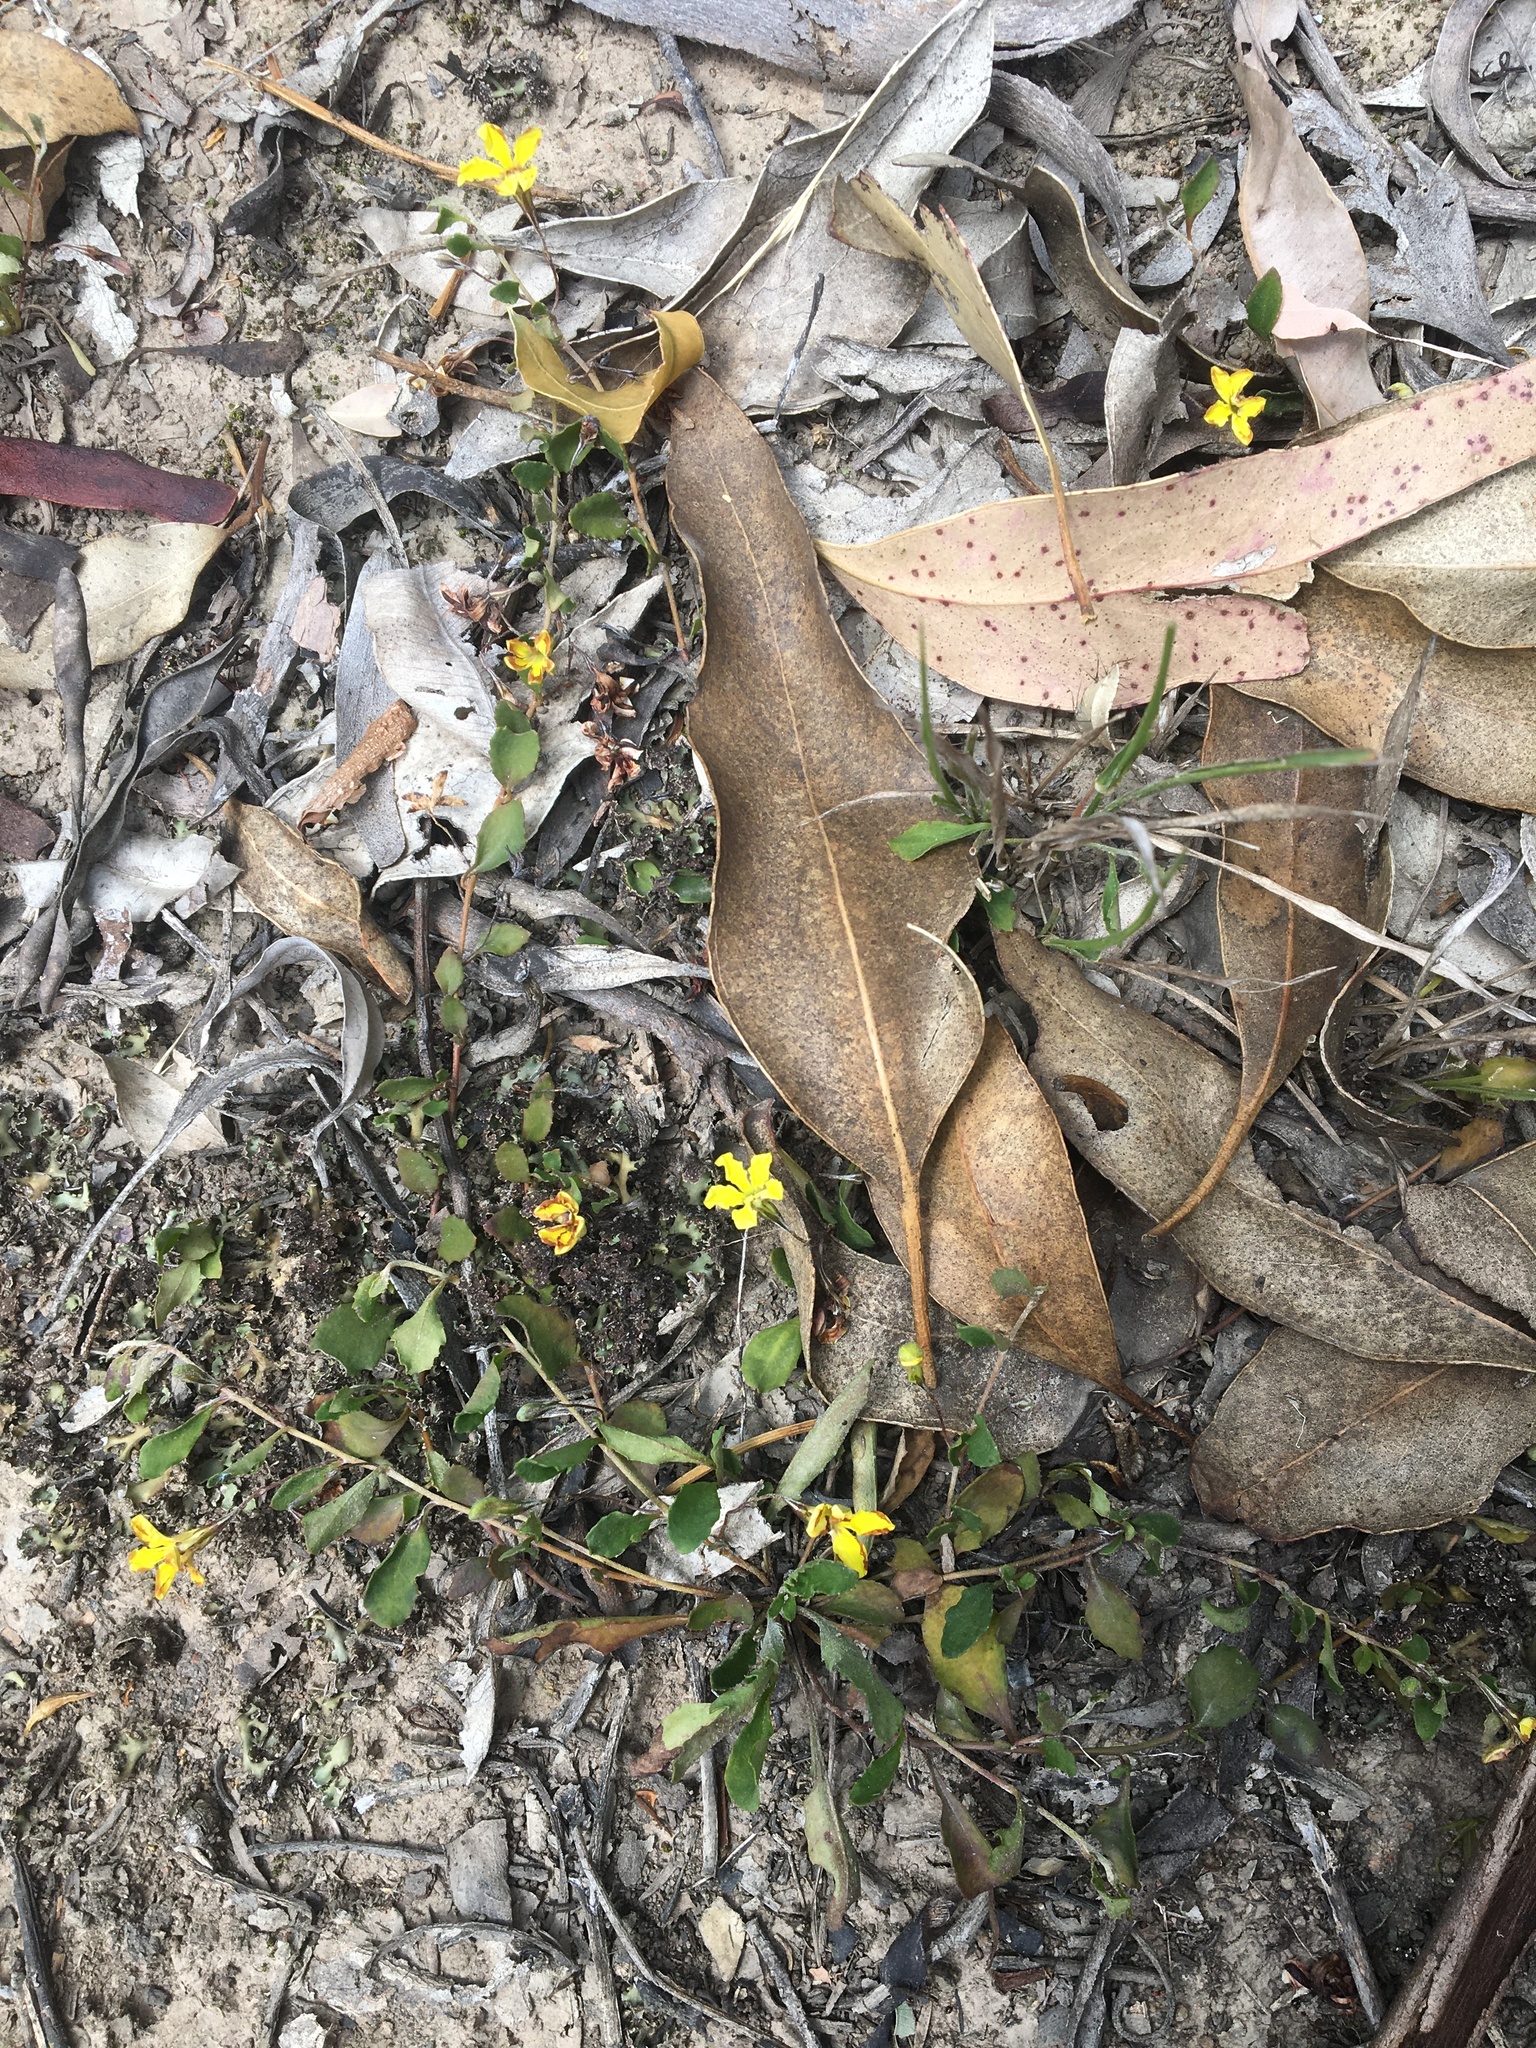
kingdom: Plantae
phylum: Tracheophyta
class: Magnoliopsida
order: Asterales
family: Goodeniaceae
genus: Goodenia
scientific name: Goodenia hederacea
